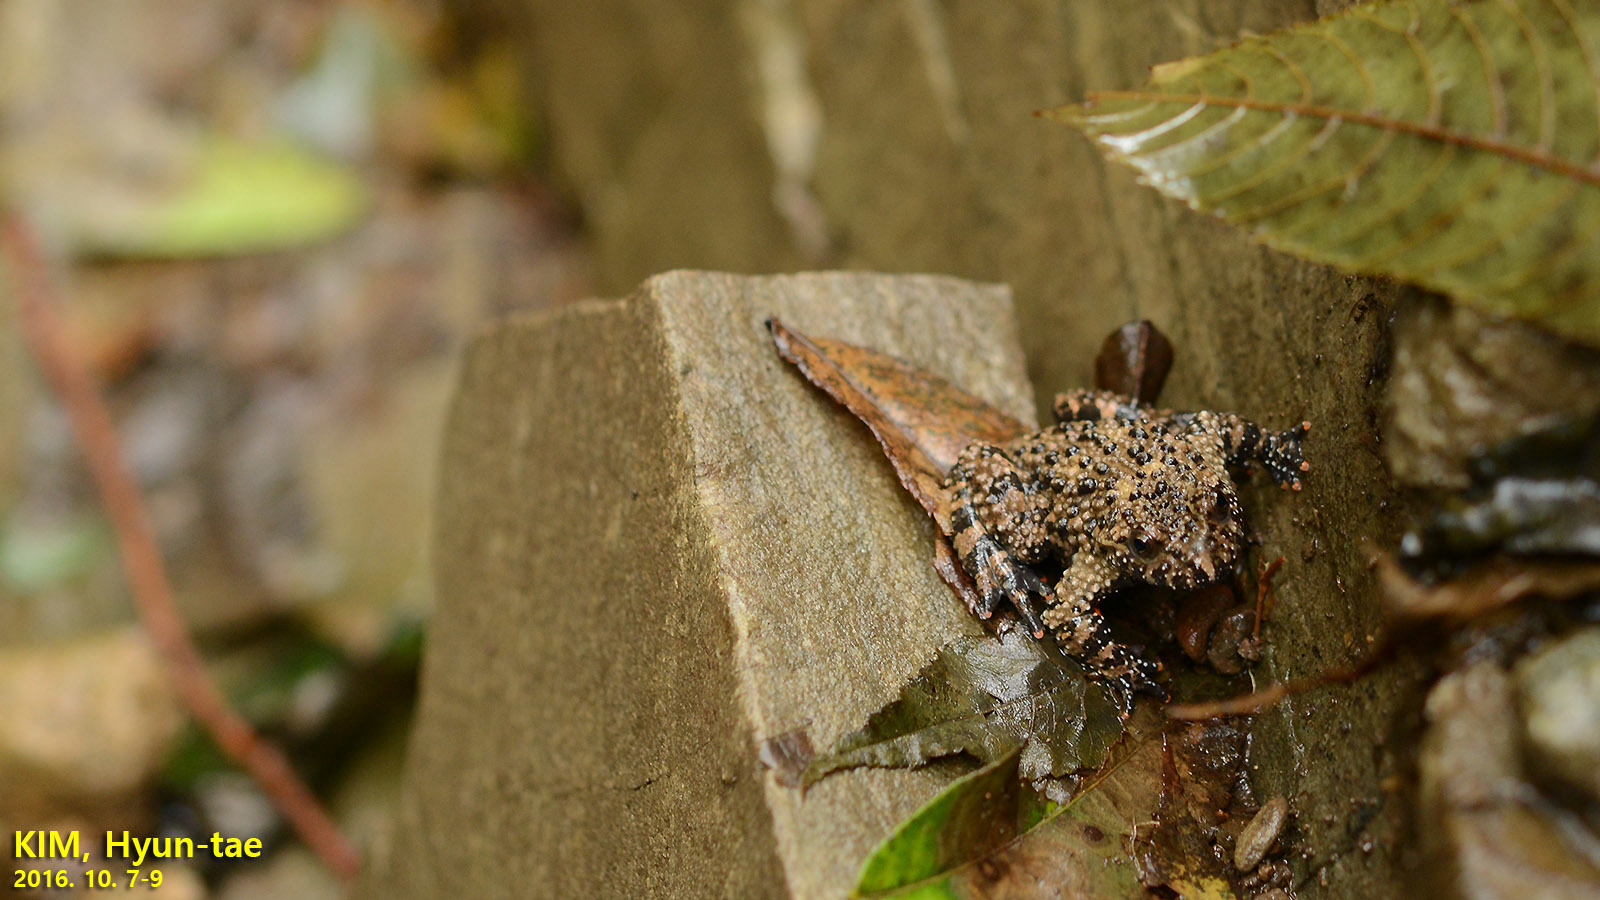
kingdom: Animalia
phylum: Chordata
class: Amphibia
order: Anura
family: Bombinatoridae
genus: Bombina
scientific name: Bombina orientalis
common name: Oriental firebelly toad
